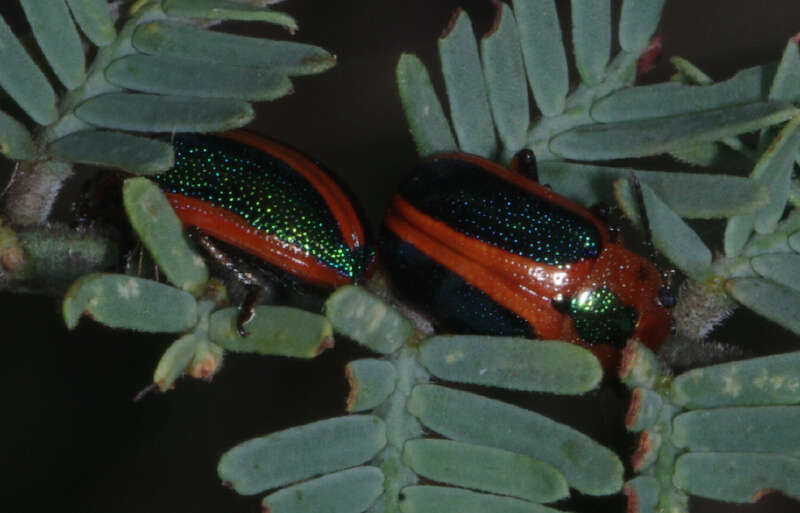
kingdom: Animalia
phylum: Arthropoda
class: Insecta
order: Coleoptera
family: Chrysomelidae
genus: Calomela
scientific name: Calomela
